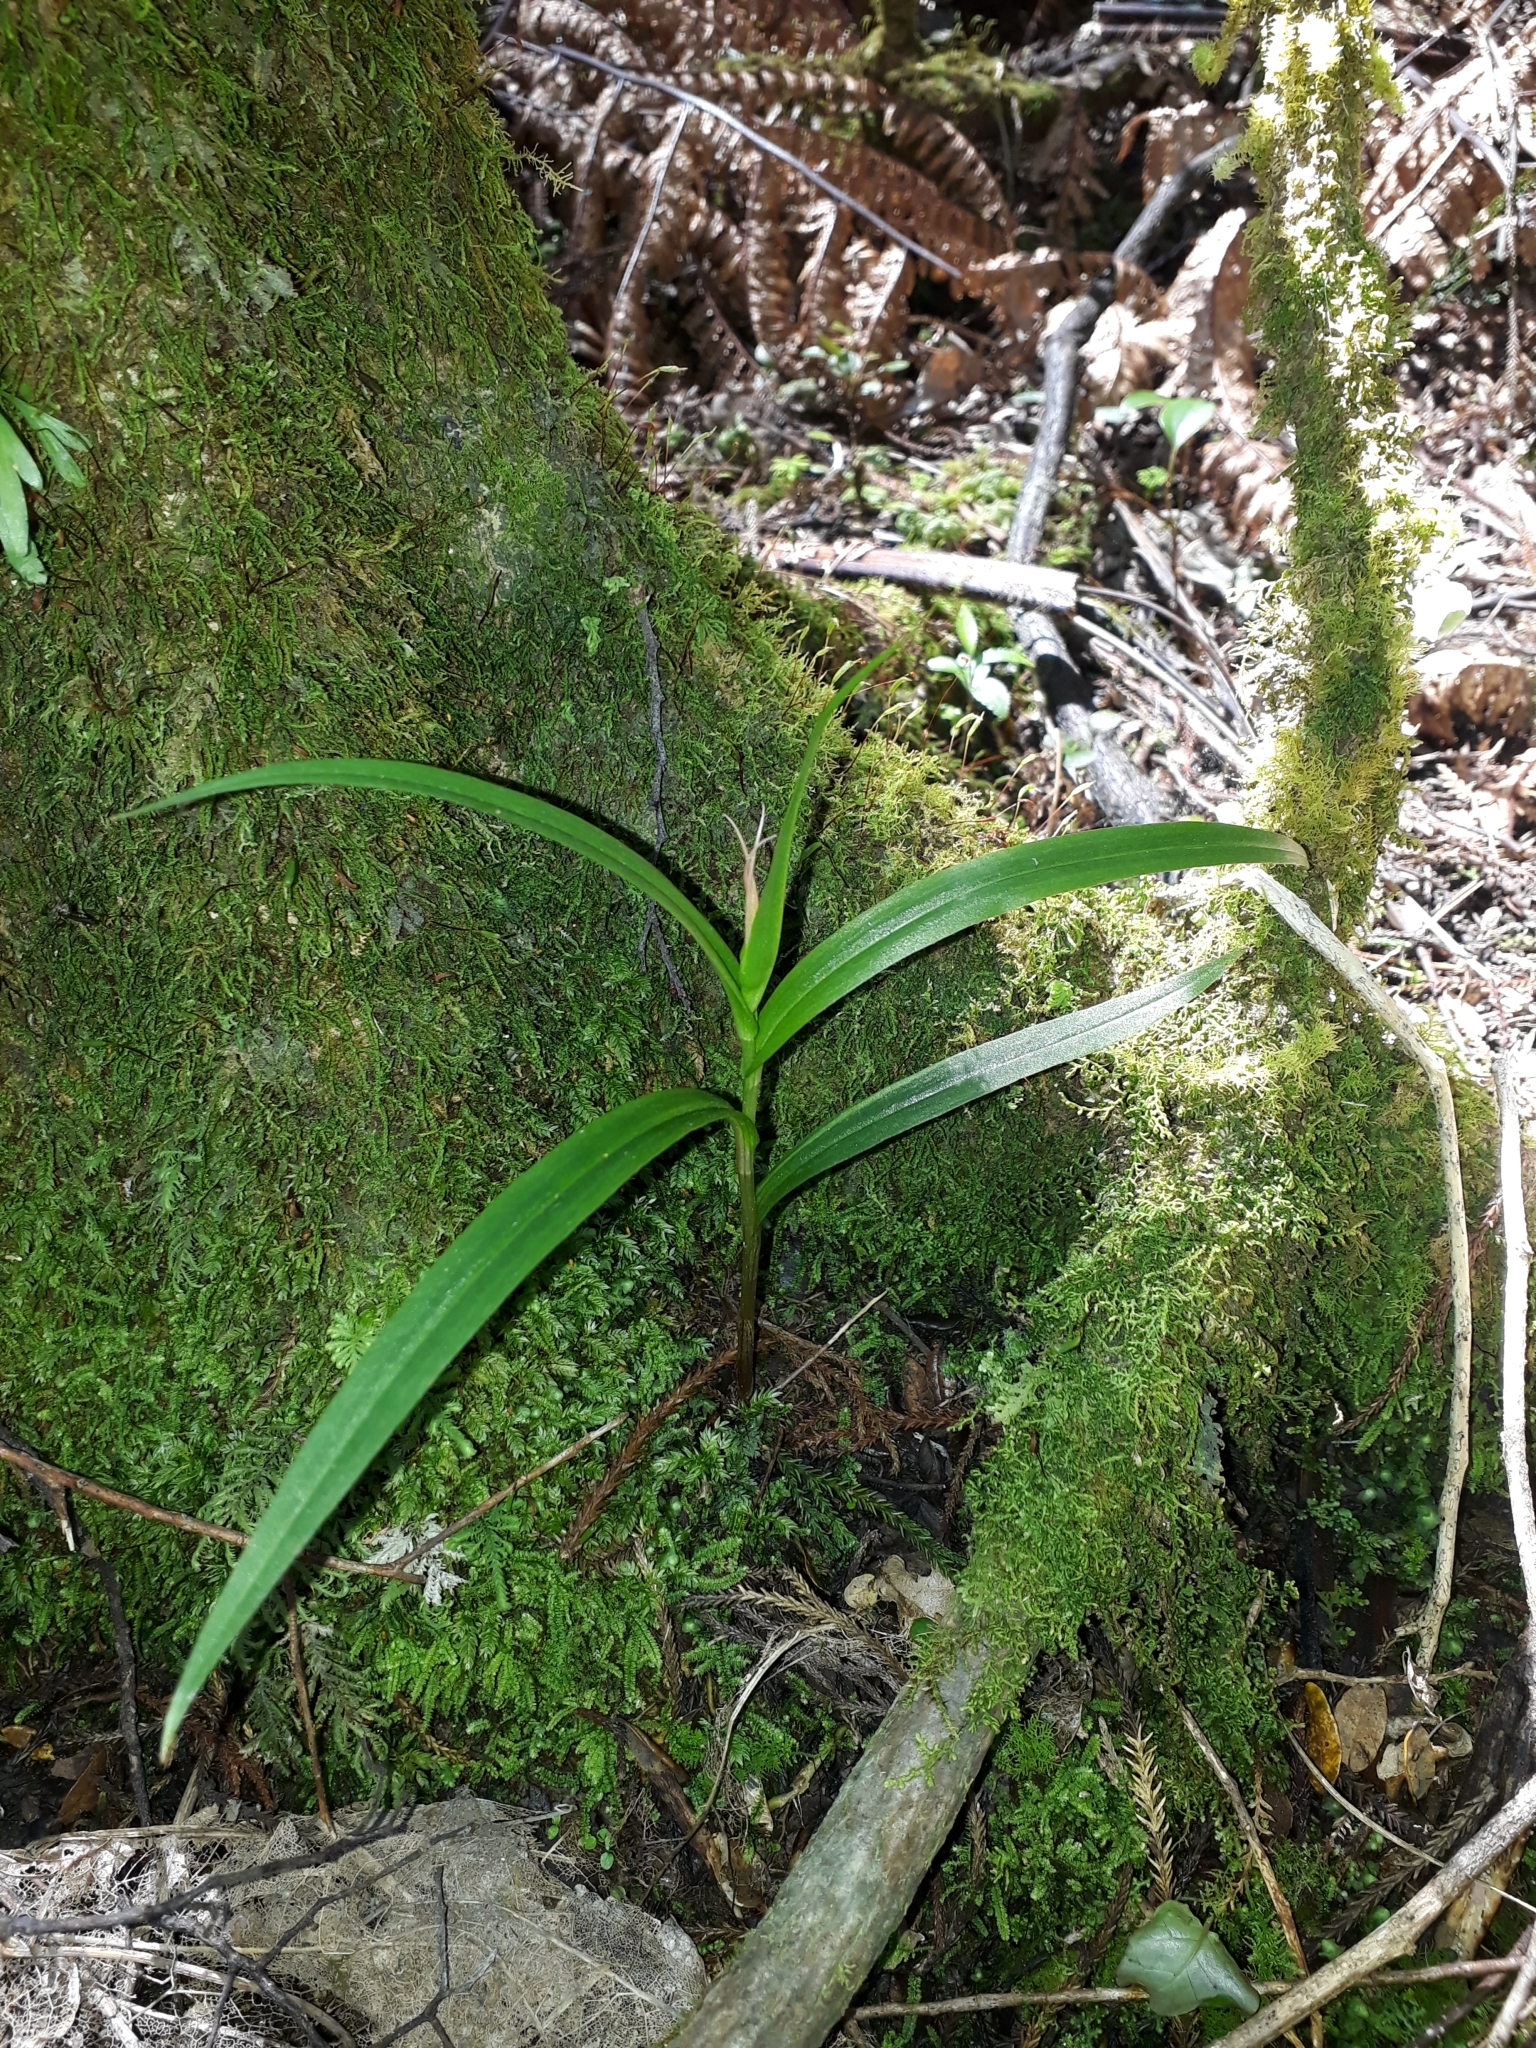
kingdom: Plantae
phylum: Tracheophyta
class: Liliopsida
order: Asparagales
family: Orchidaceae
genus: Pterostylis
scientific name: Pterostylis banksii
